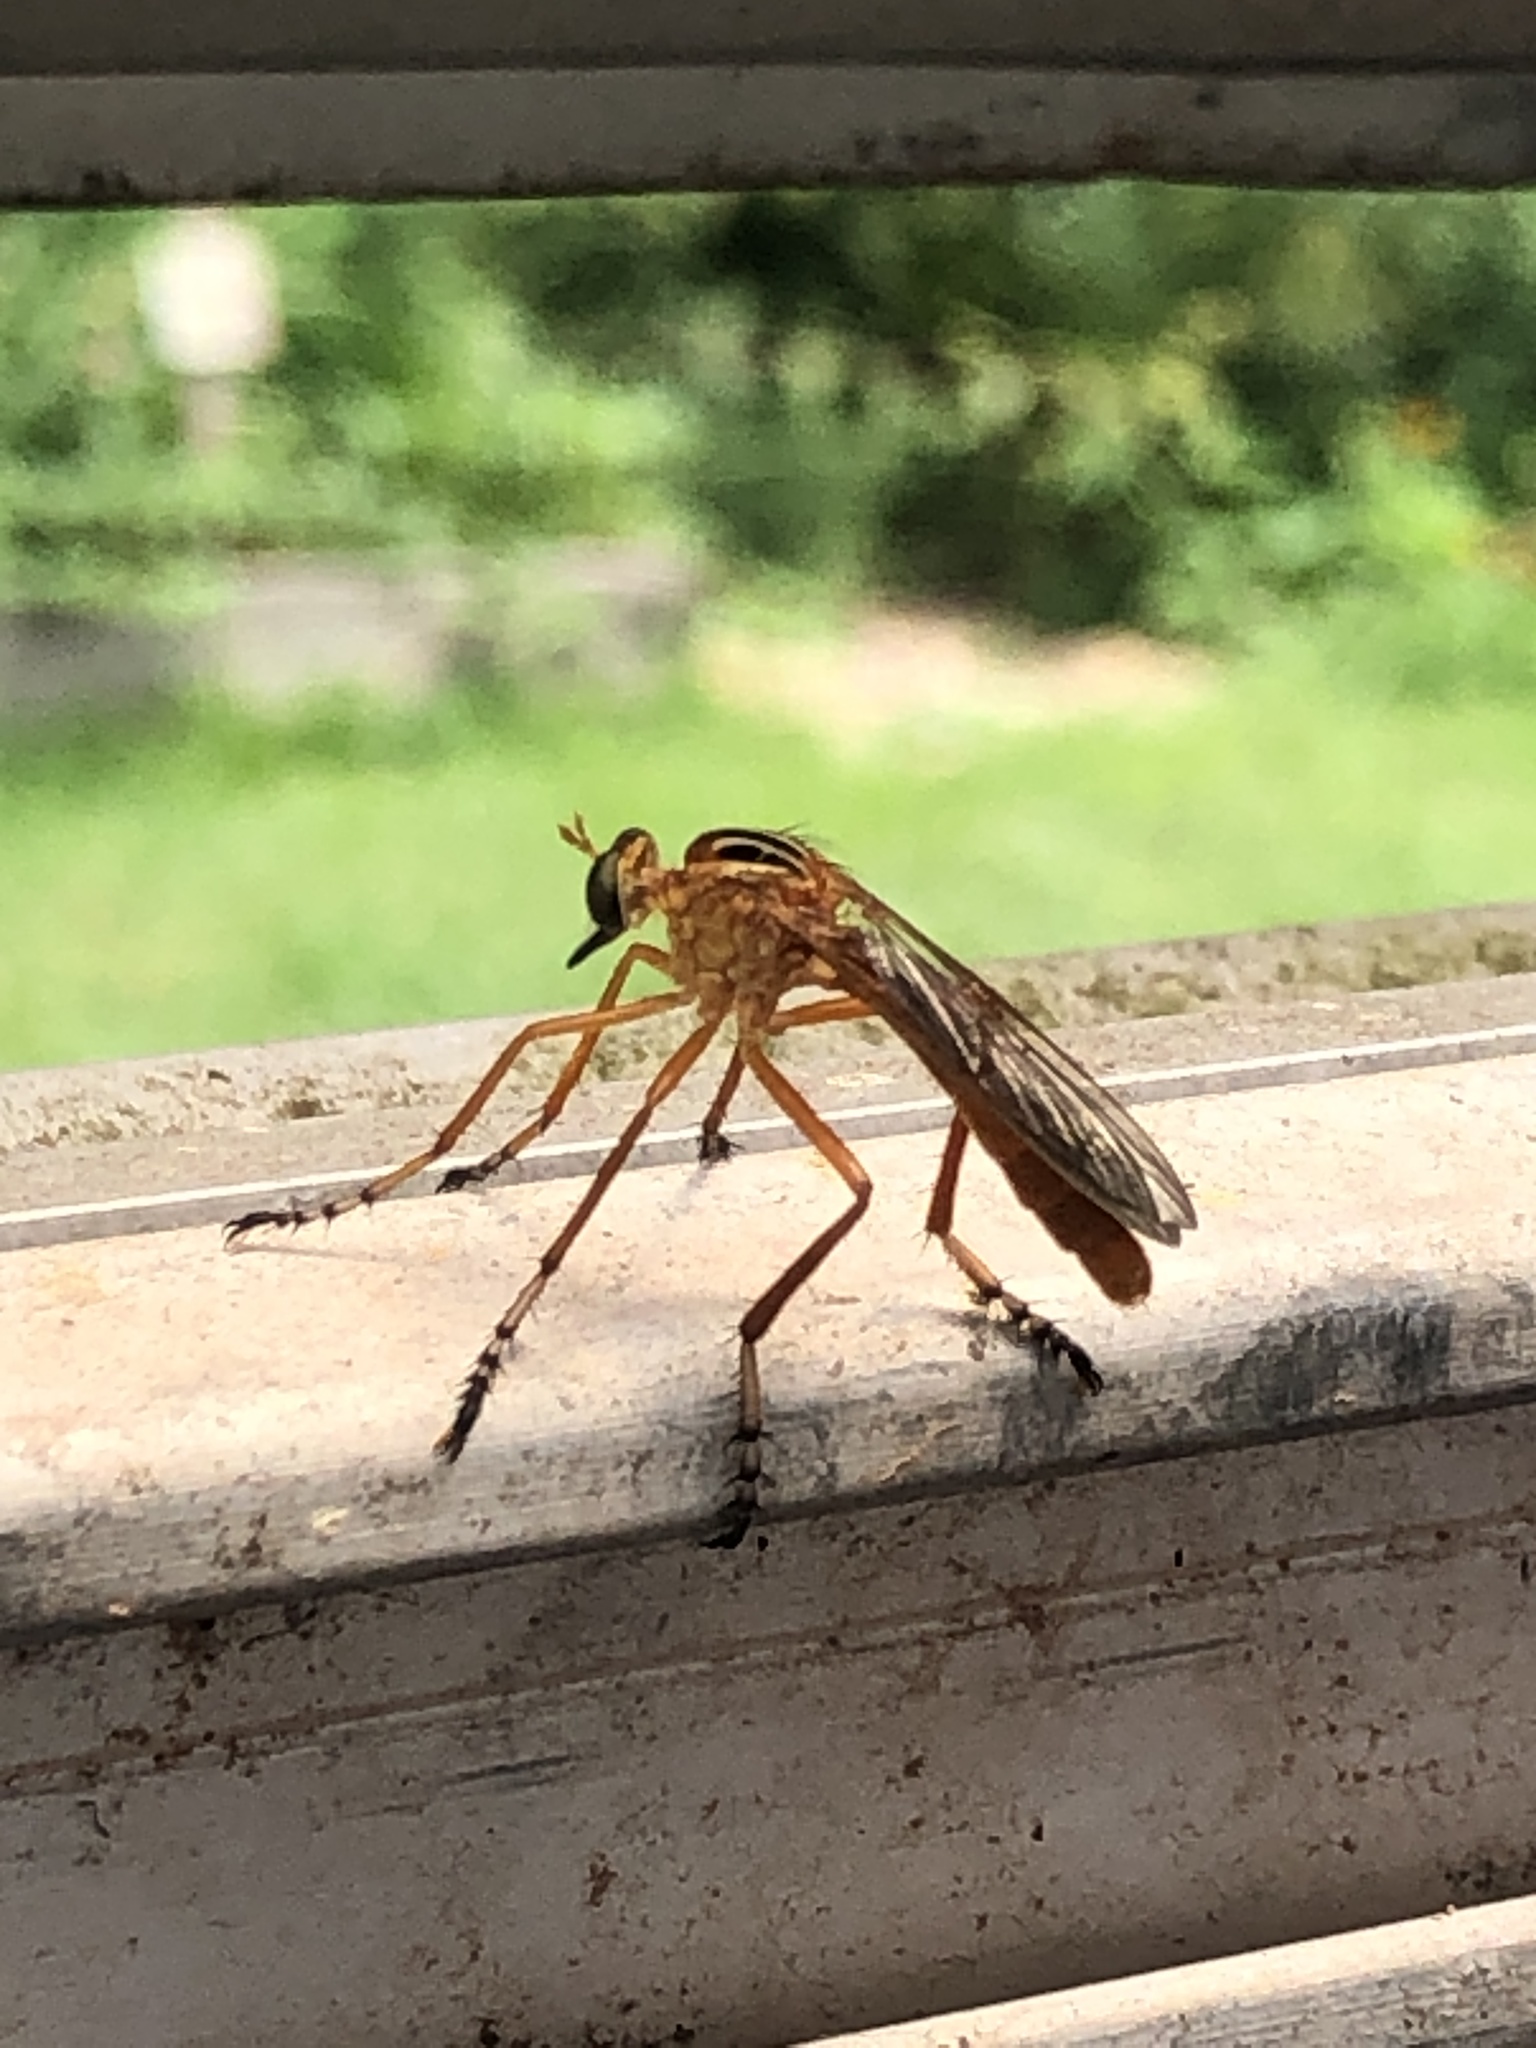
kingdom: Animalia
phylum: Arthropoda
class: Insecta
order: Diptera
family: Asilidae
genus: Diogmites
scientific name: Diogmites neoternatus
